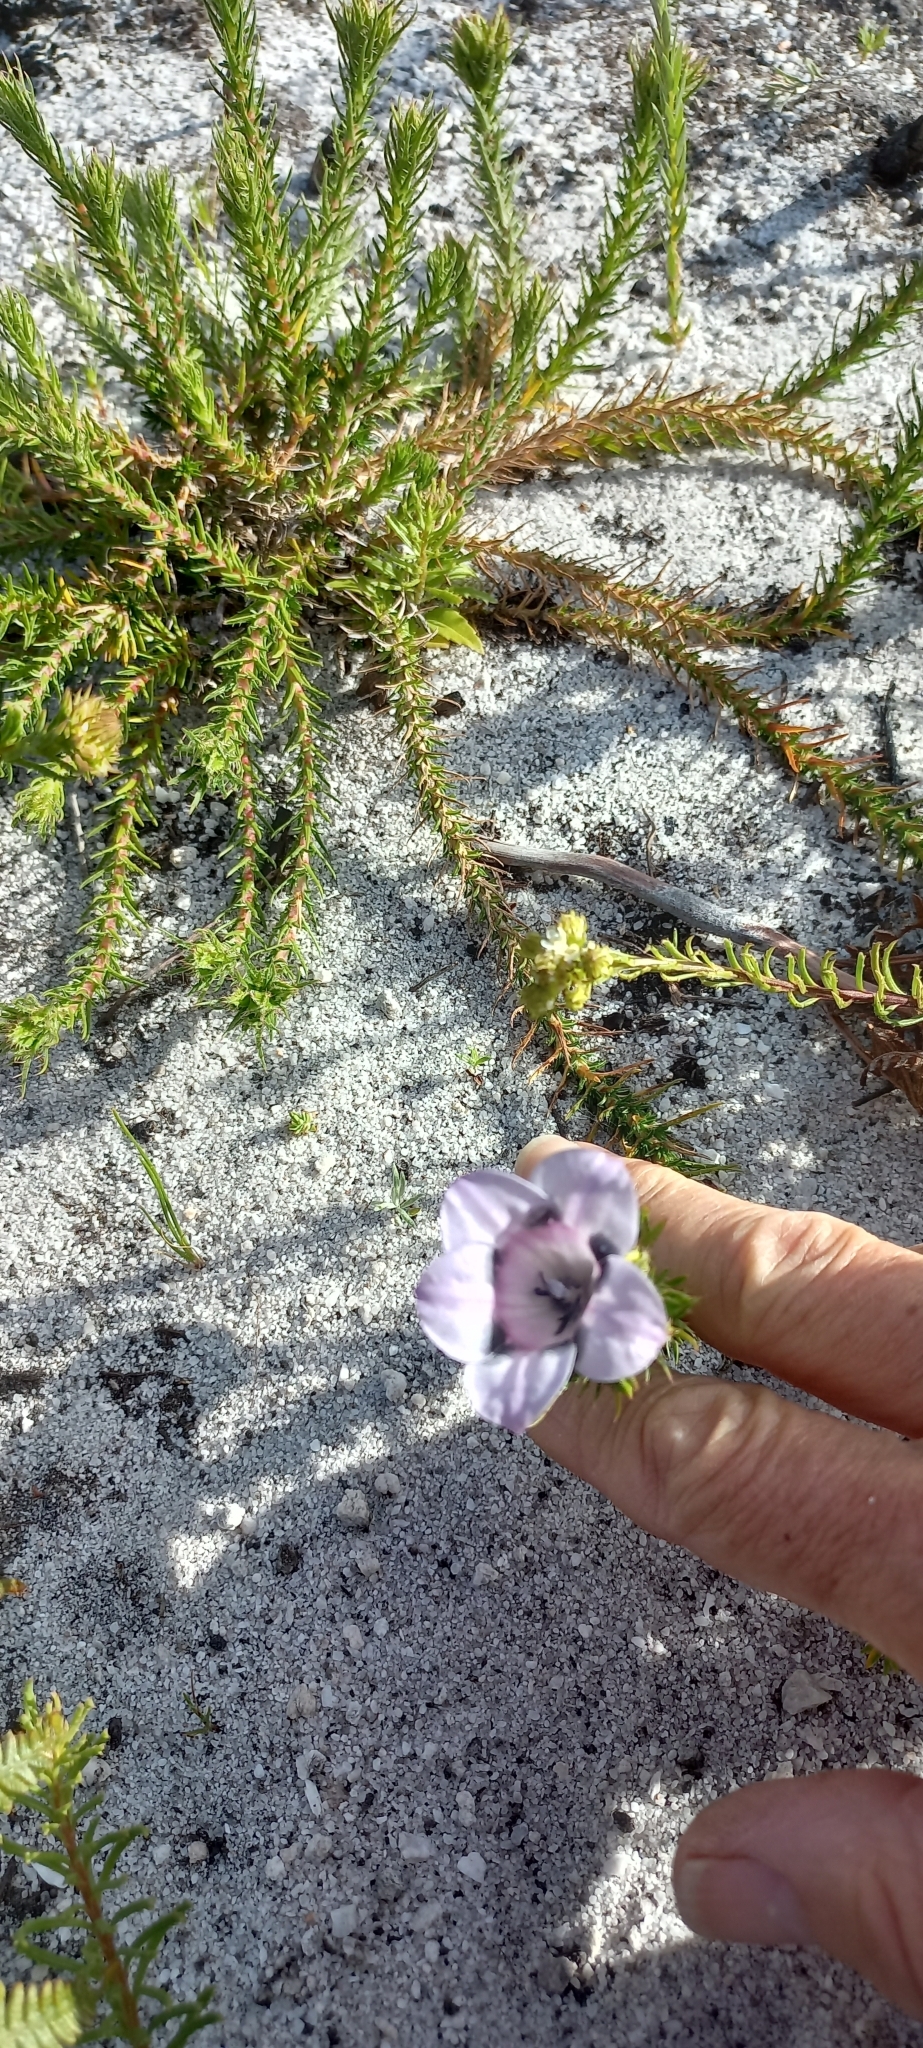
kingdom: Plantae
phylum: Tracheophyta
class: Magnoliopsida
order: Asterales
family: Campanulaceae
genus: Roella
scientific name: Roella maculata
